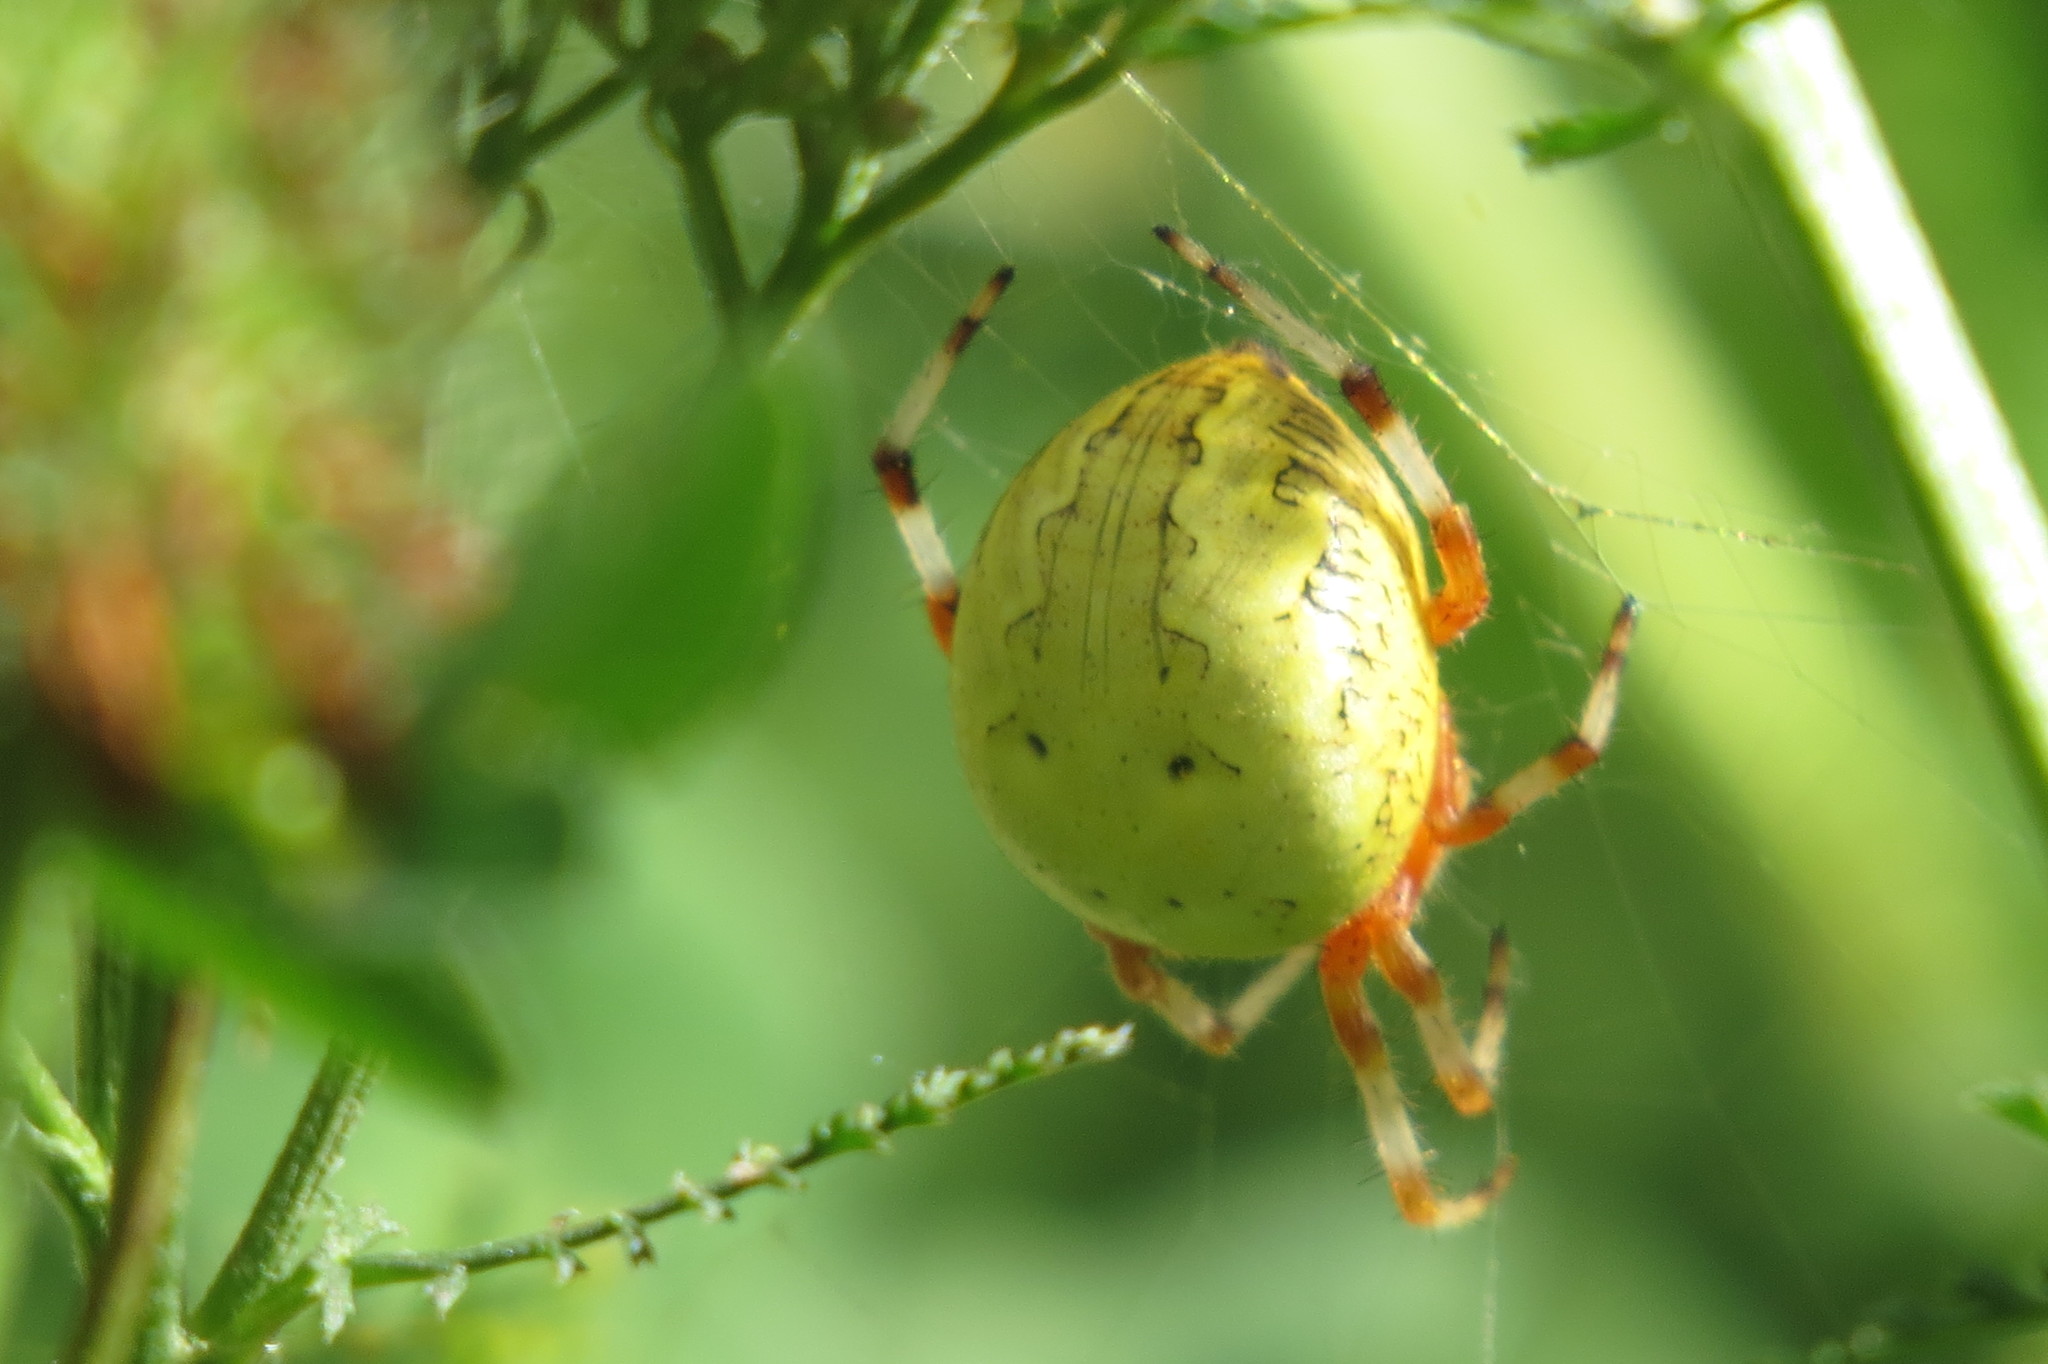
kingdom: Animalia
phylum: Arthropoda
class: Arachnida
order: Araneae
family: Araneidae
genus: Araneus
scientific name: Araneus marmoreus
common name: Marbled orbweaver
